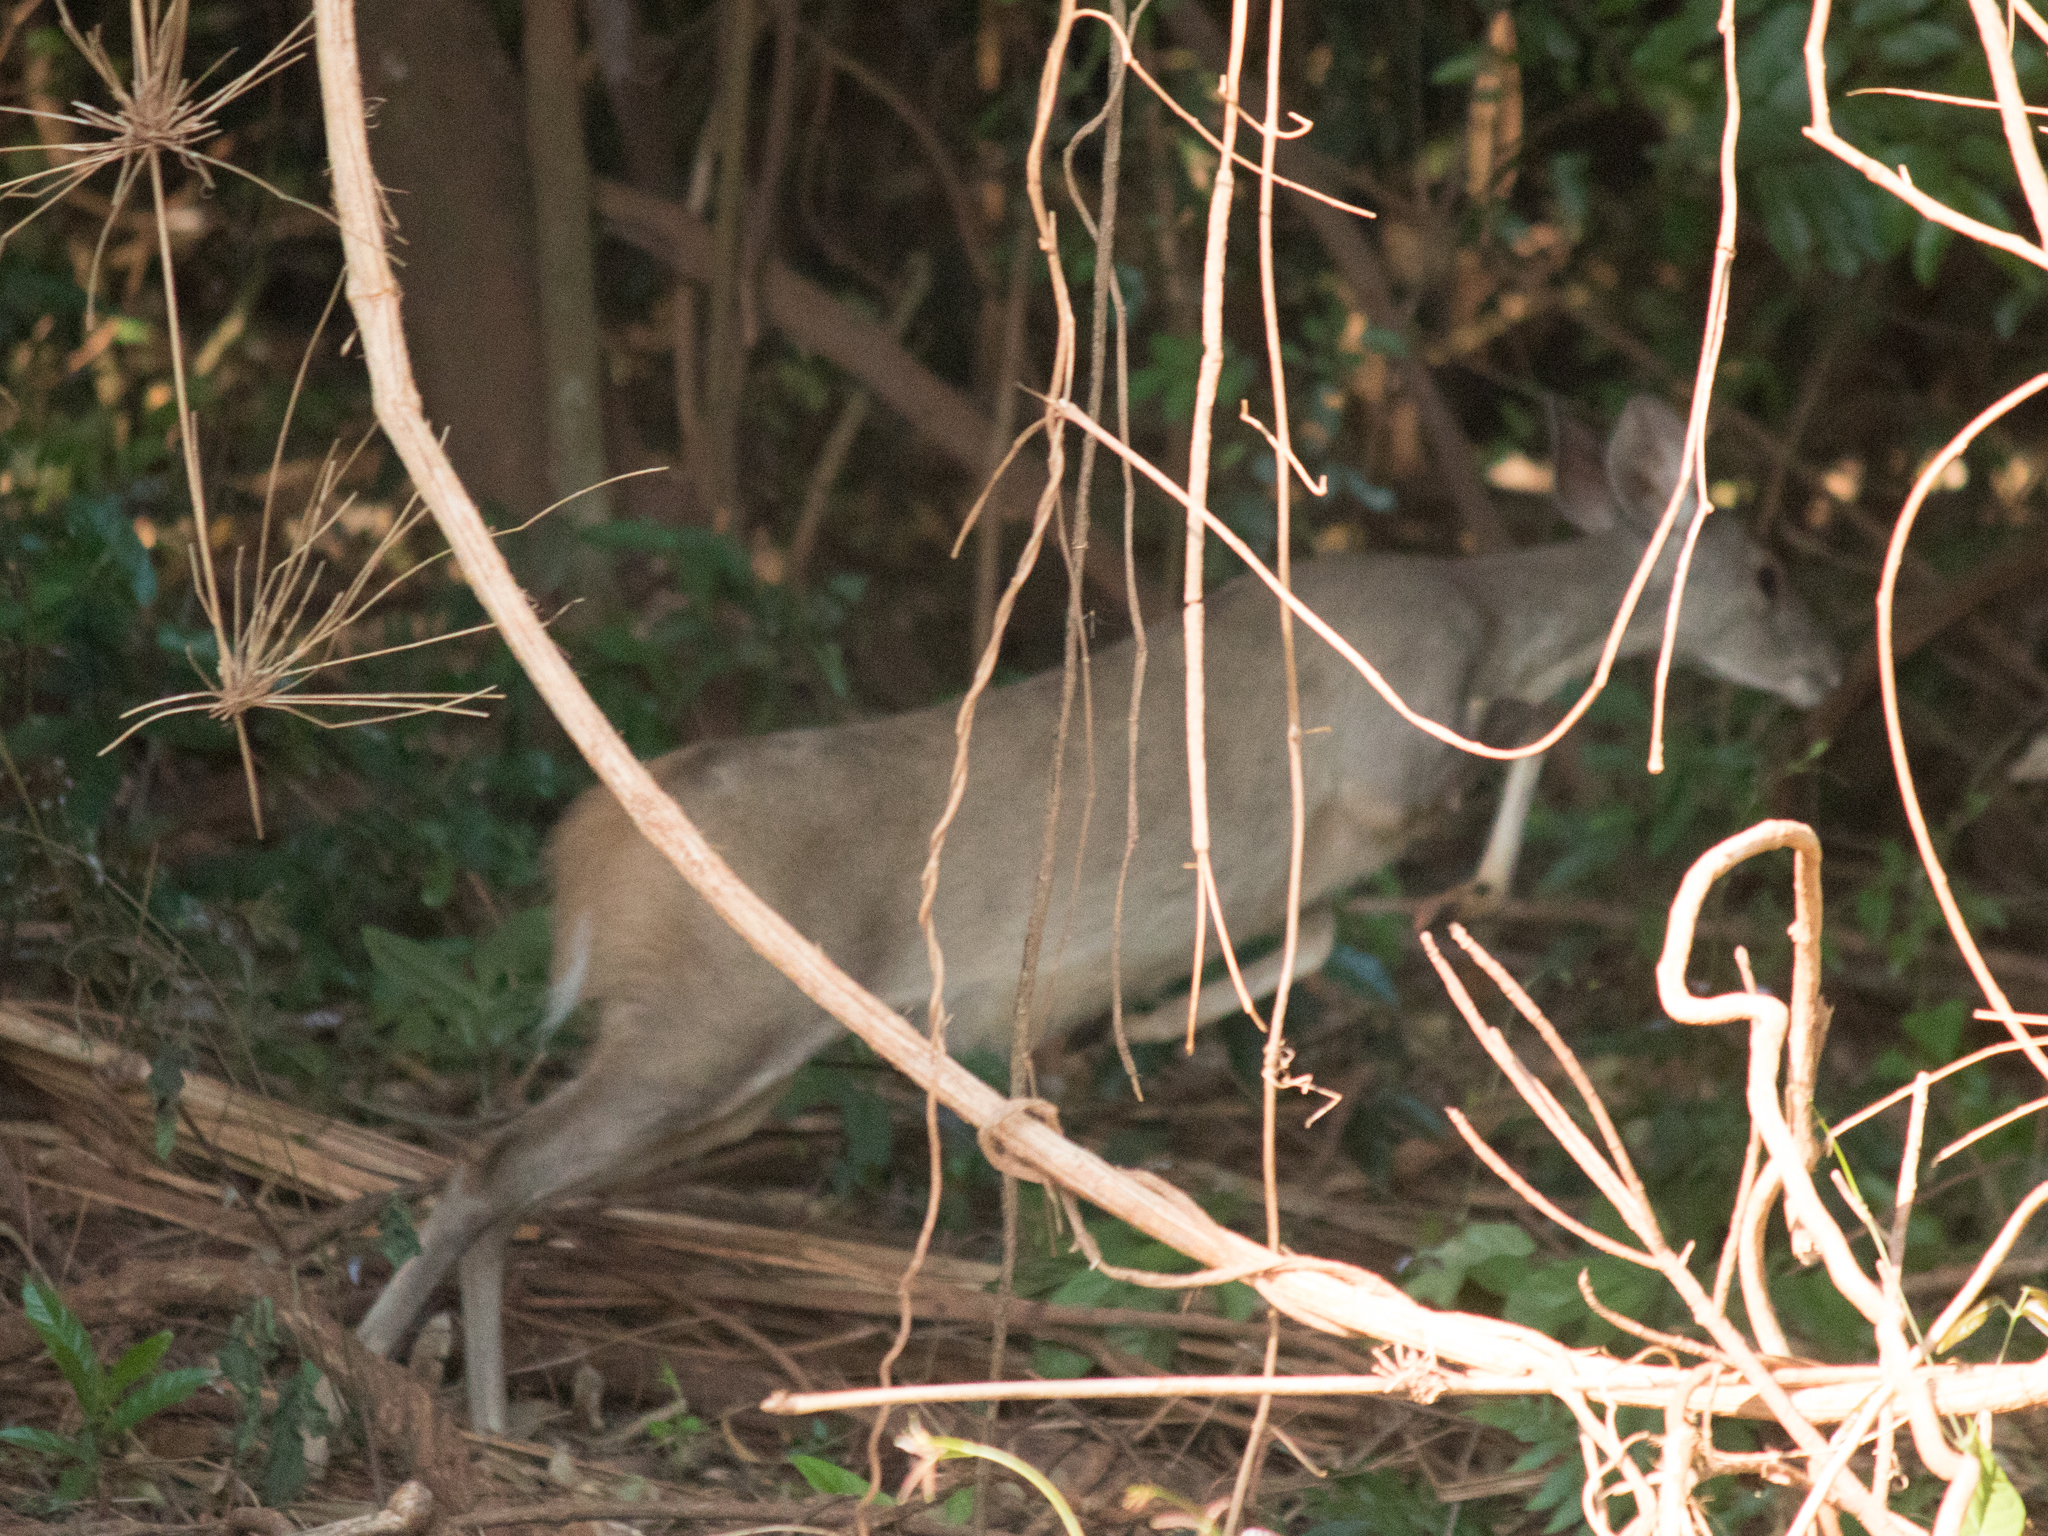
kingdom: Animalia
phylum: Chordata
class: Mammalia
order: Artiodactyla
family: Cervidae
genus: Mazama
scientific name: Mazama gouazoubira
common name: Gray brocket
